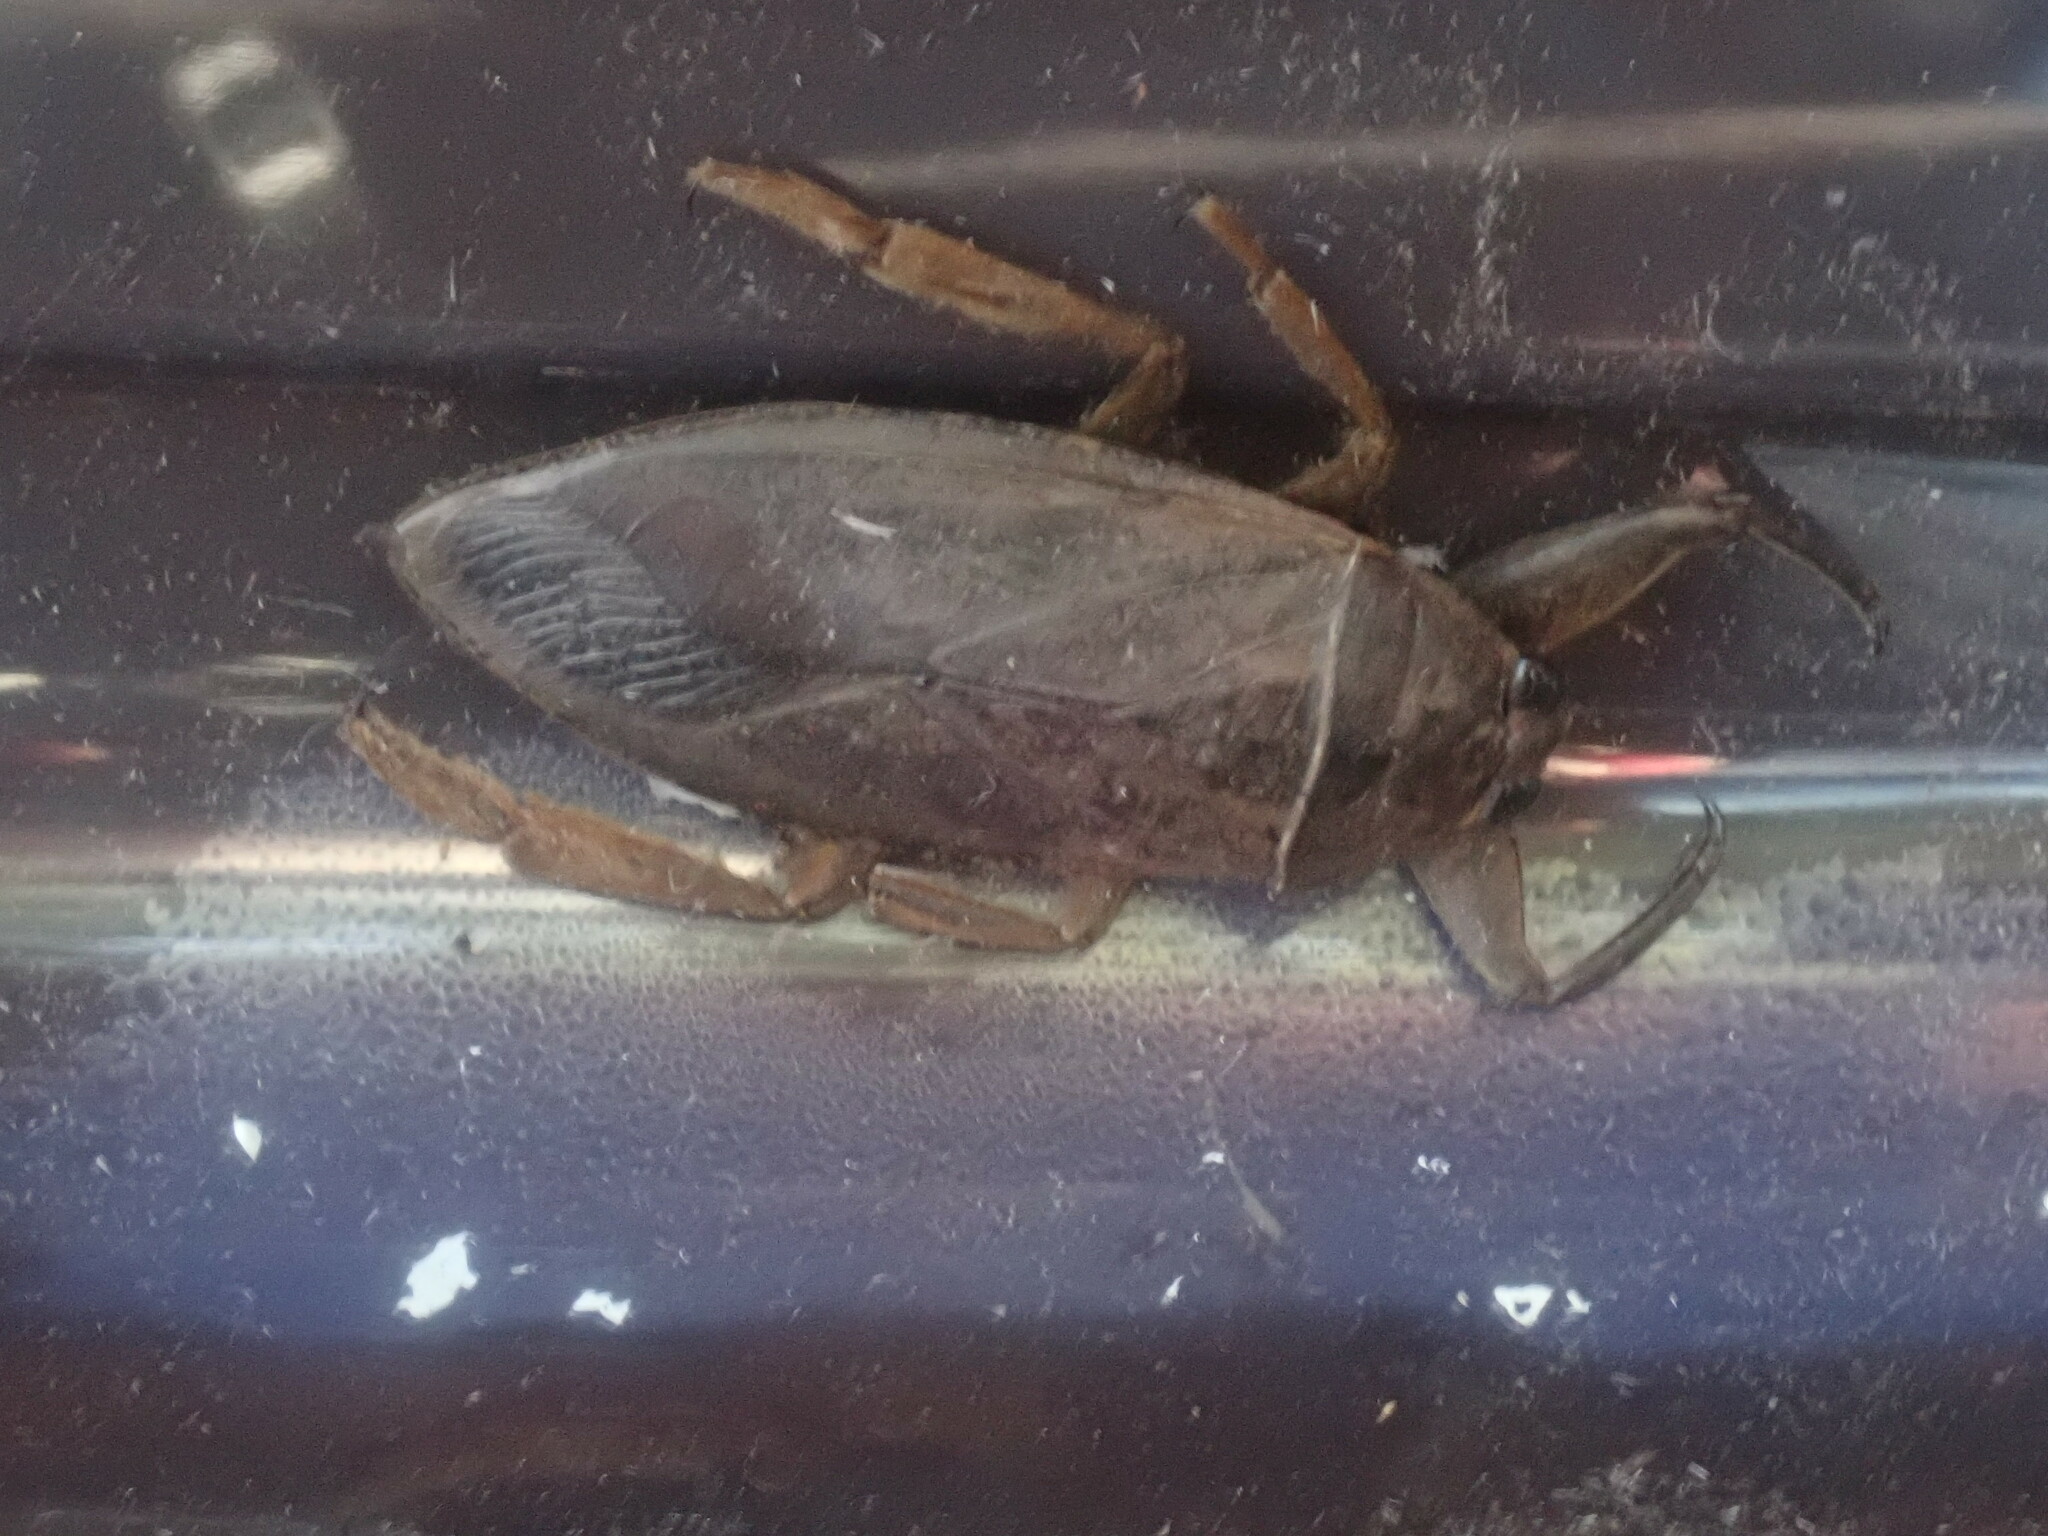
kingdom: Animalia
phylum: Arthropoda
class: Insecta
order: Hemiptera
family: Belostomatidae
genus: Lethocerus
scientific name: Lethocerus americanus
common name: Giant water bug
